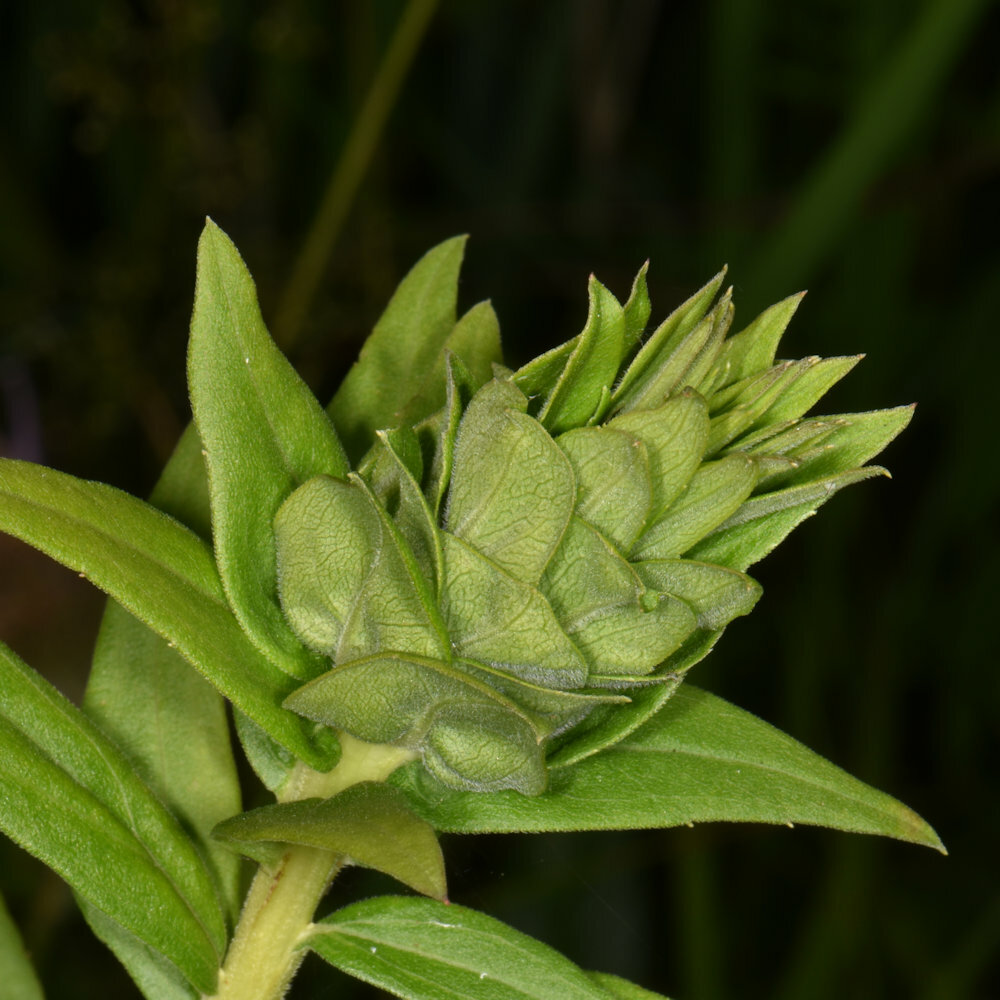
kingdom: Animalia
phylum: Arthropoda
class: Insecta
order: Diptera
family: Cecidomyiidae
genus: Rhopalomyia
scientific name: Rhopalomyia solidaginis
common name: Goldenrod bunch gall midge
